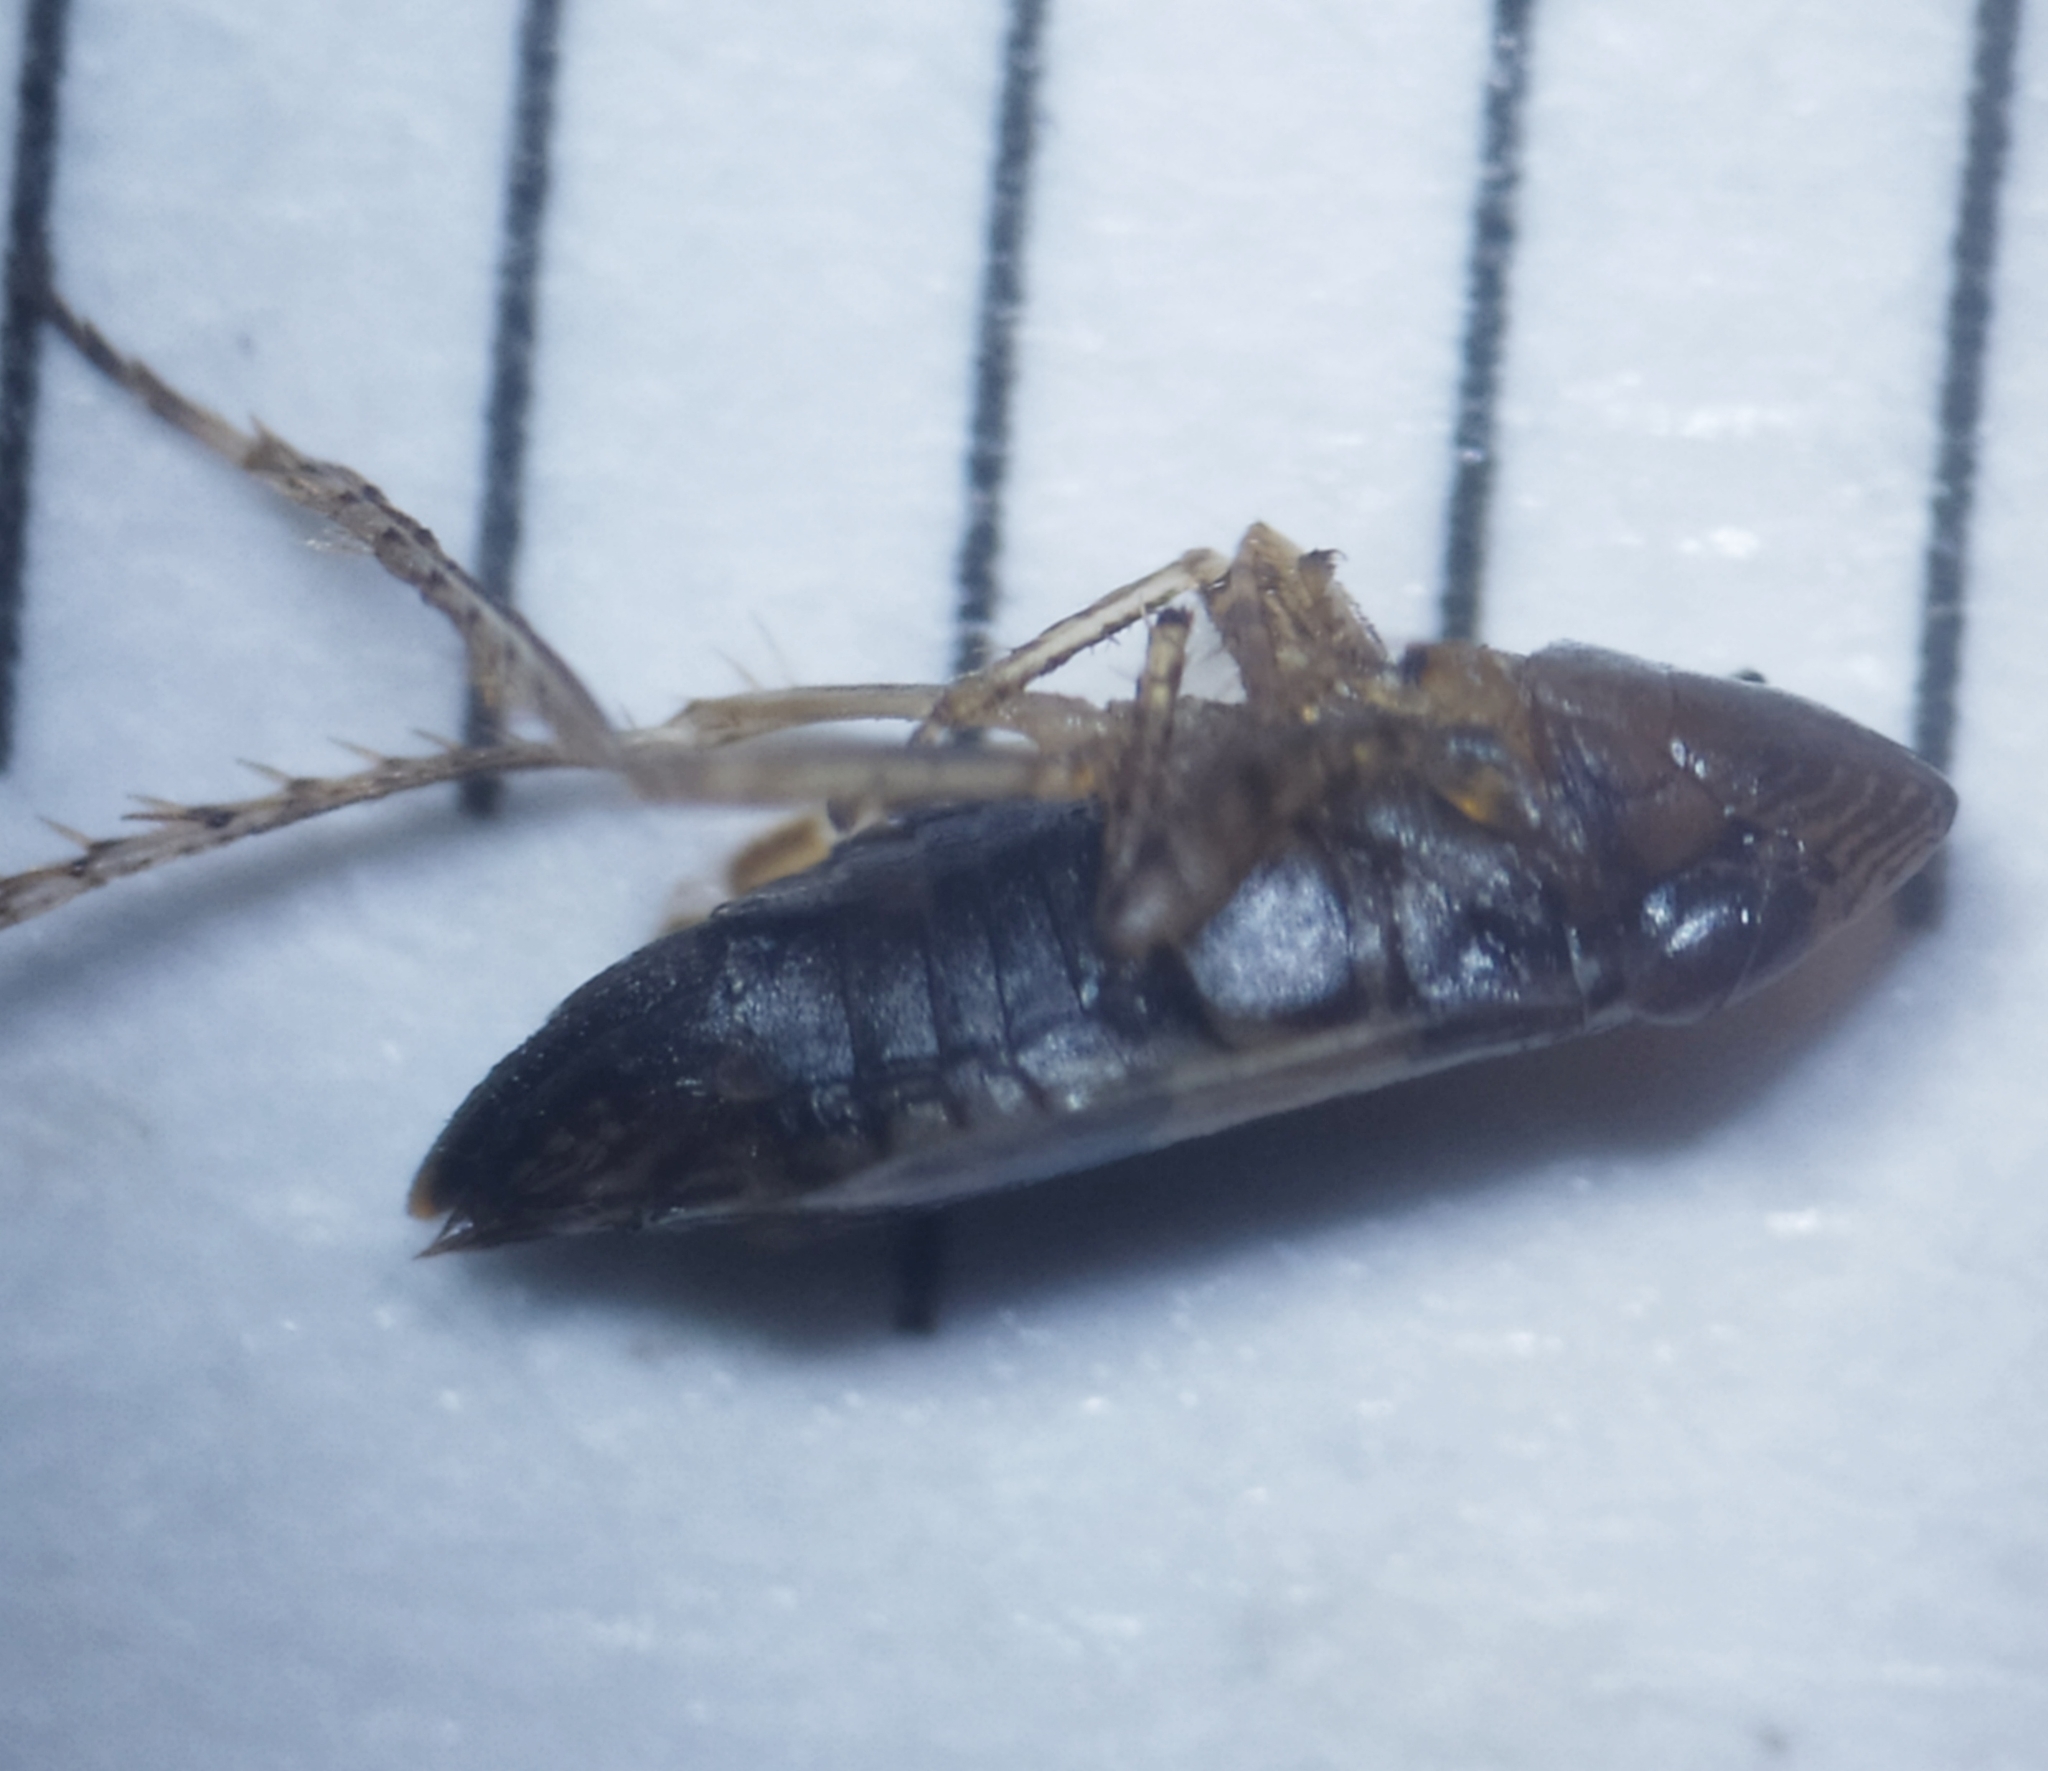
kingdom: Animalia
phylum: Arthropoda
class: Insecta
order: Hemiptera
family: Cicadellidae
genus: Turrutus
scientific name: Turrutus socialis
